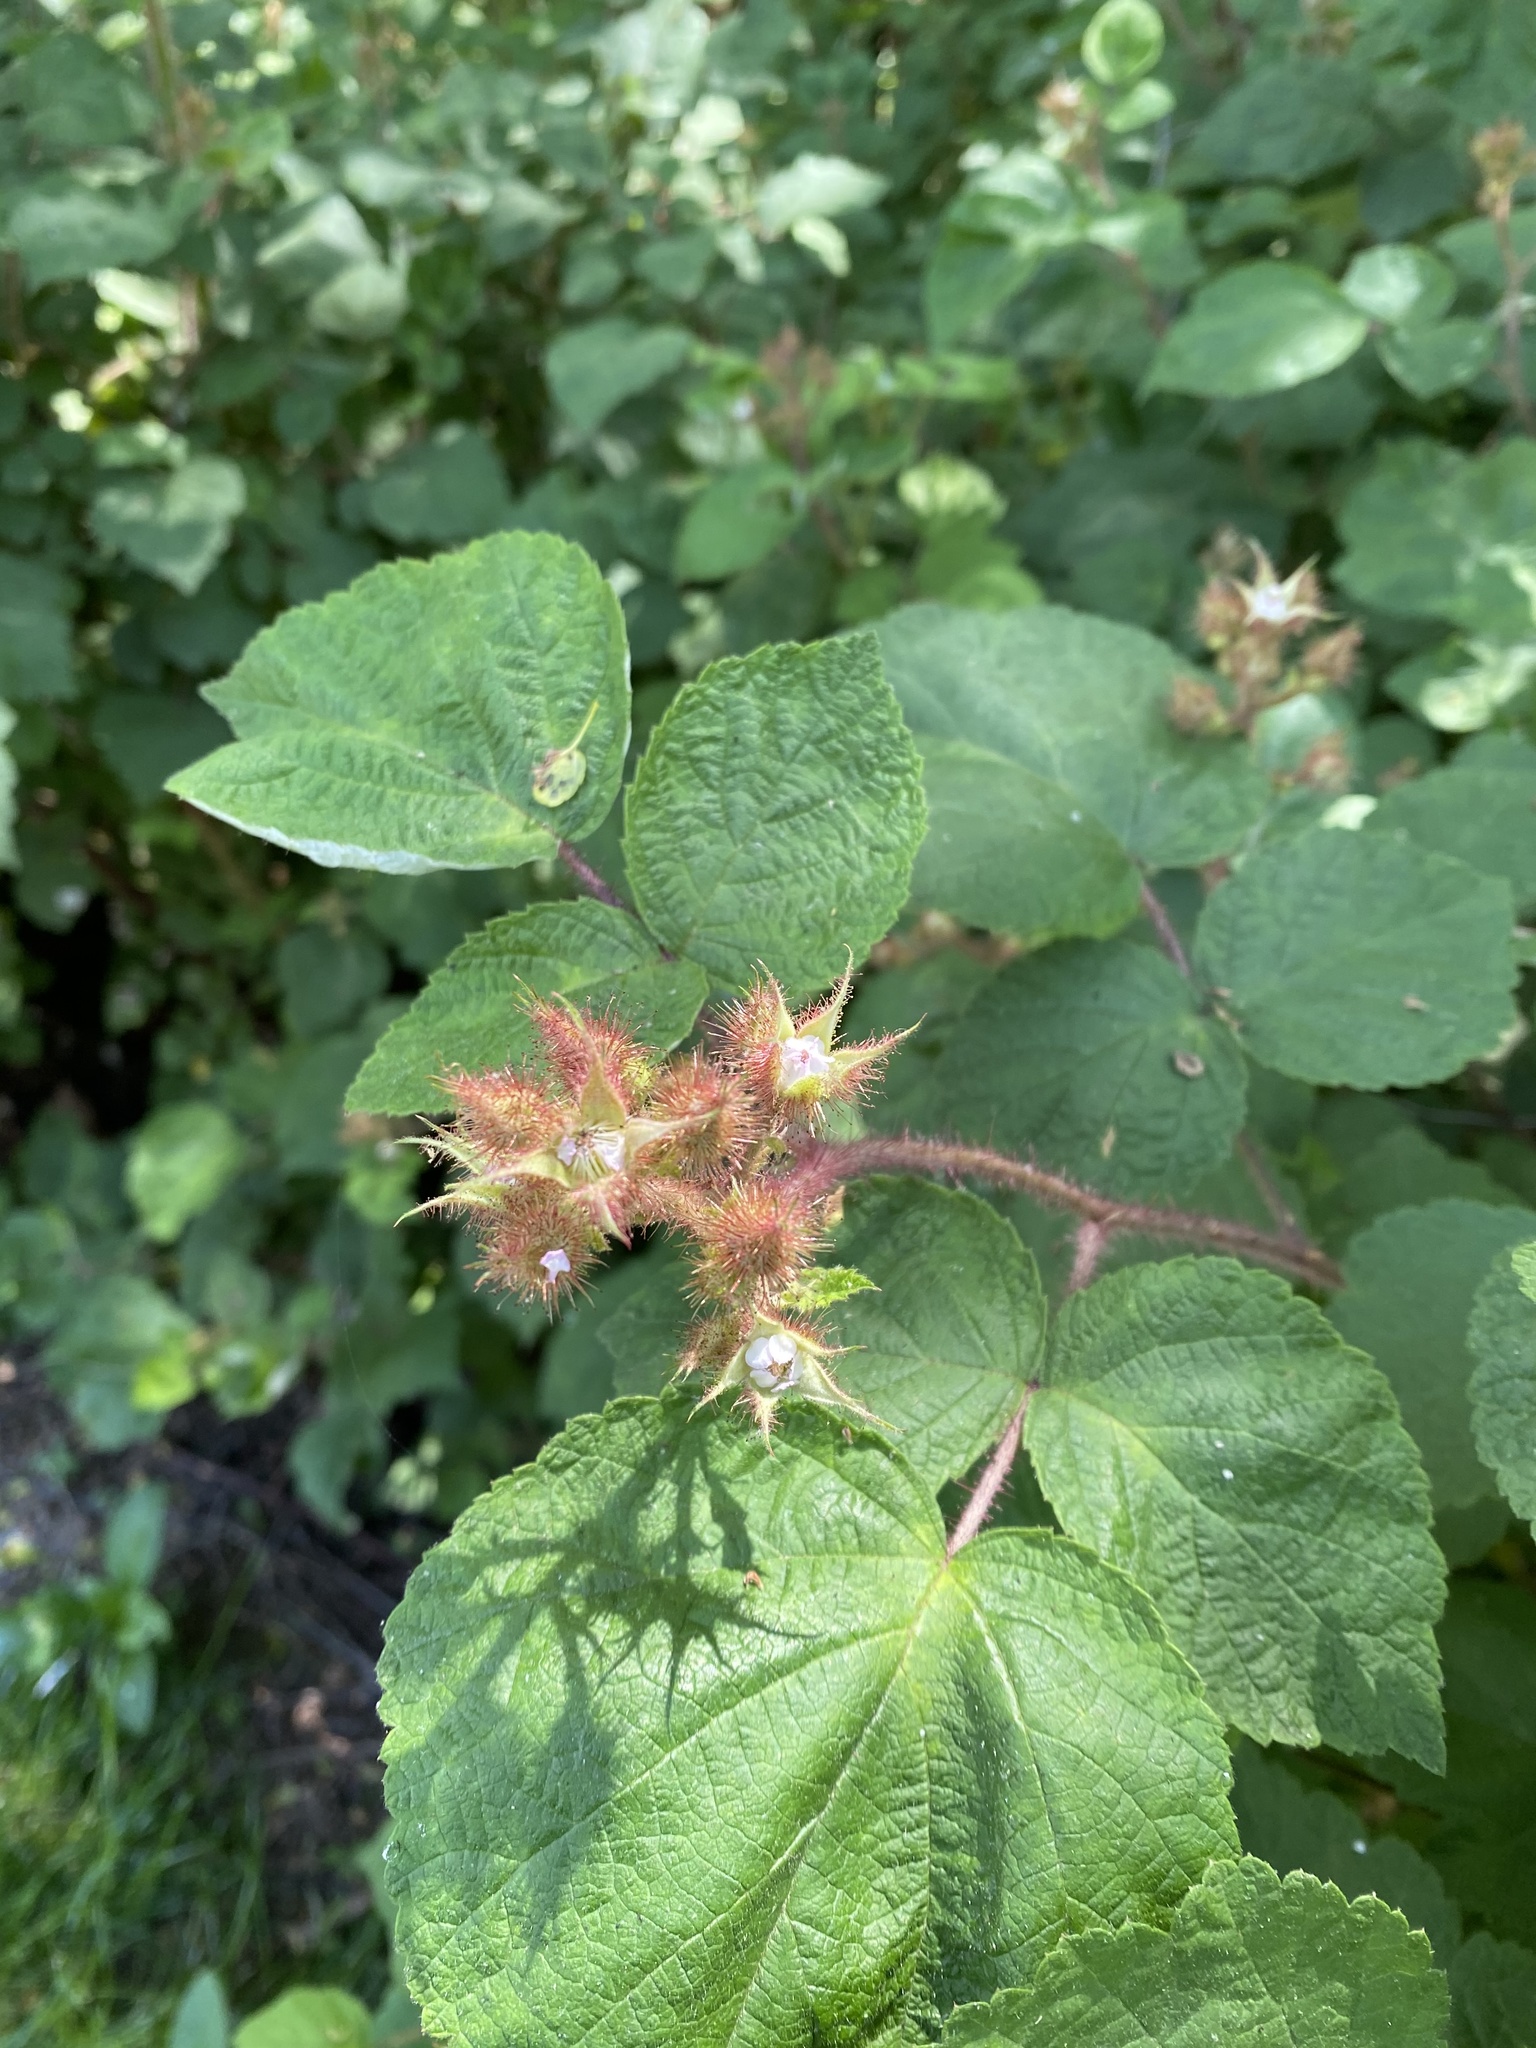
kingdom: Plantae
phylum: Tracheophyta
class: Magnoliopsida
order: Rosales
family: Rosaceae
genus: Rubus
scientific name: Rubus phoenicolasius
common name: Japanese wineberry
